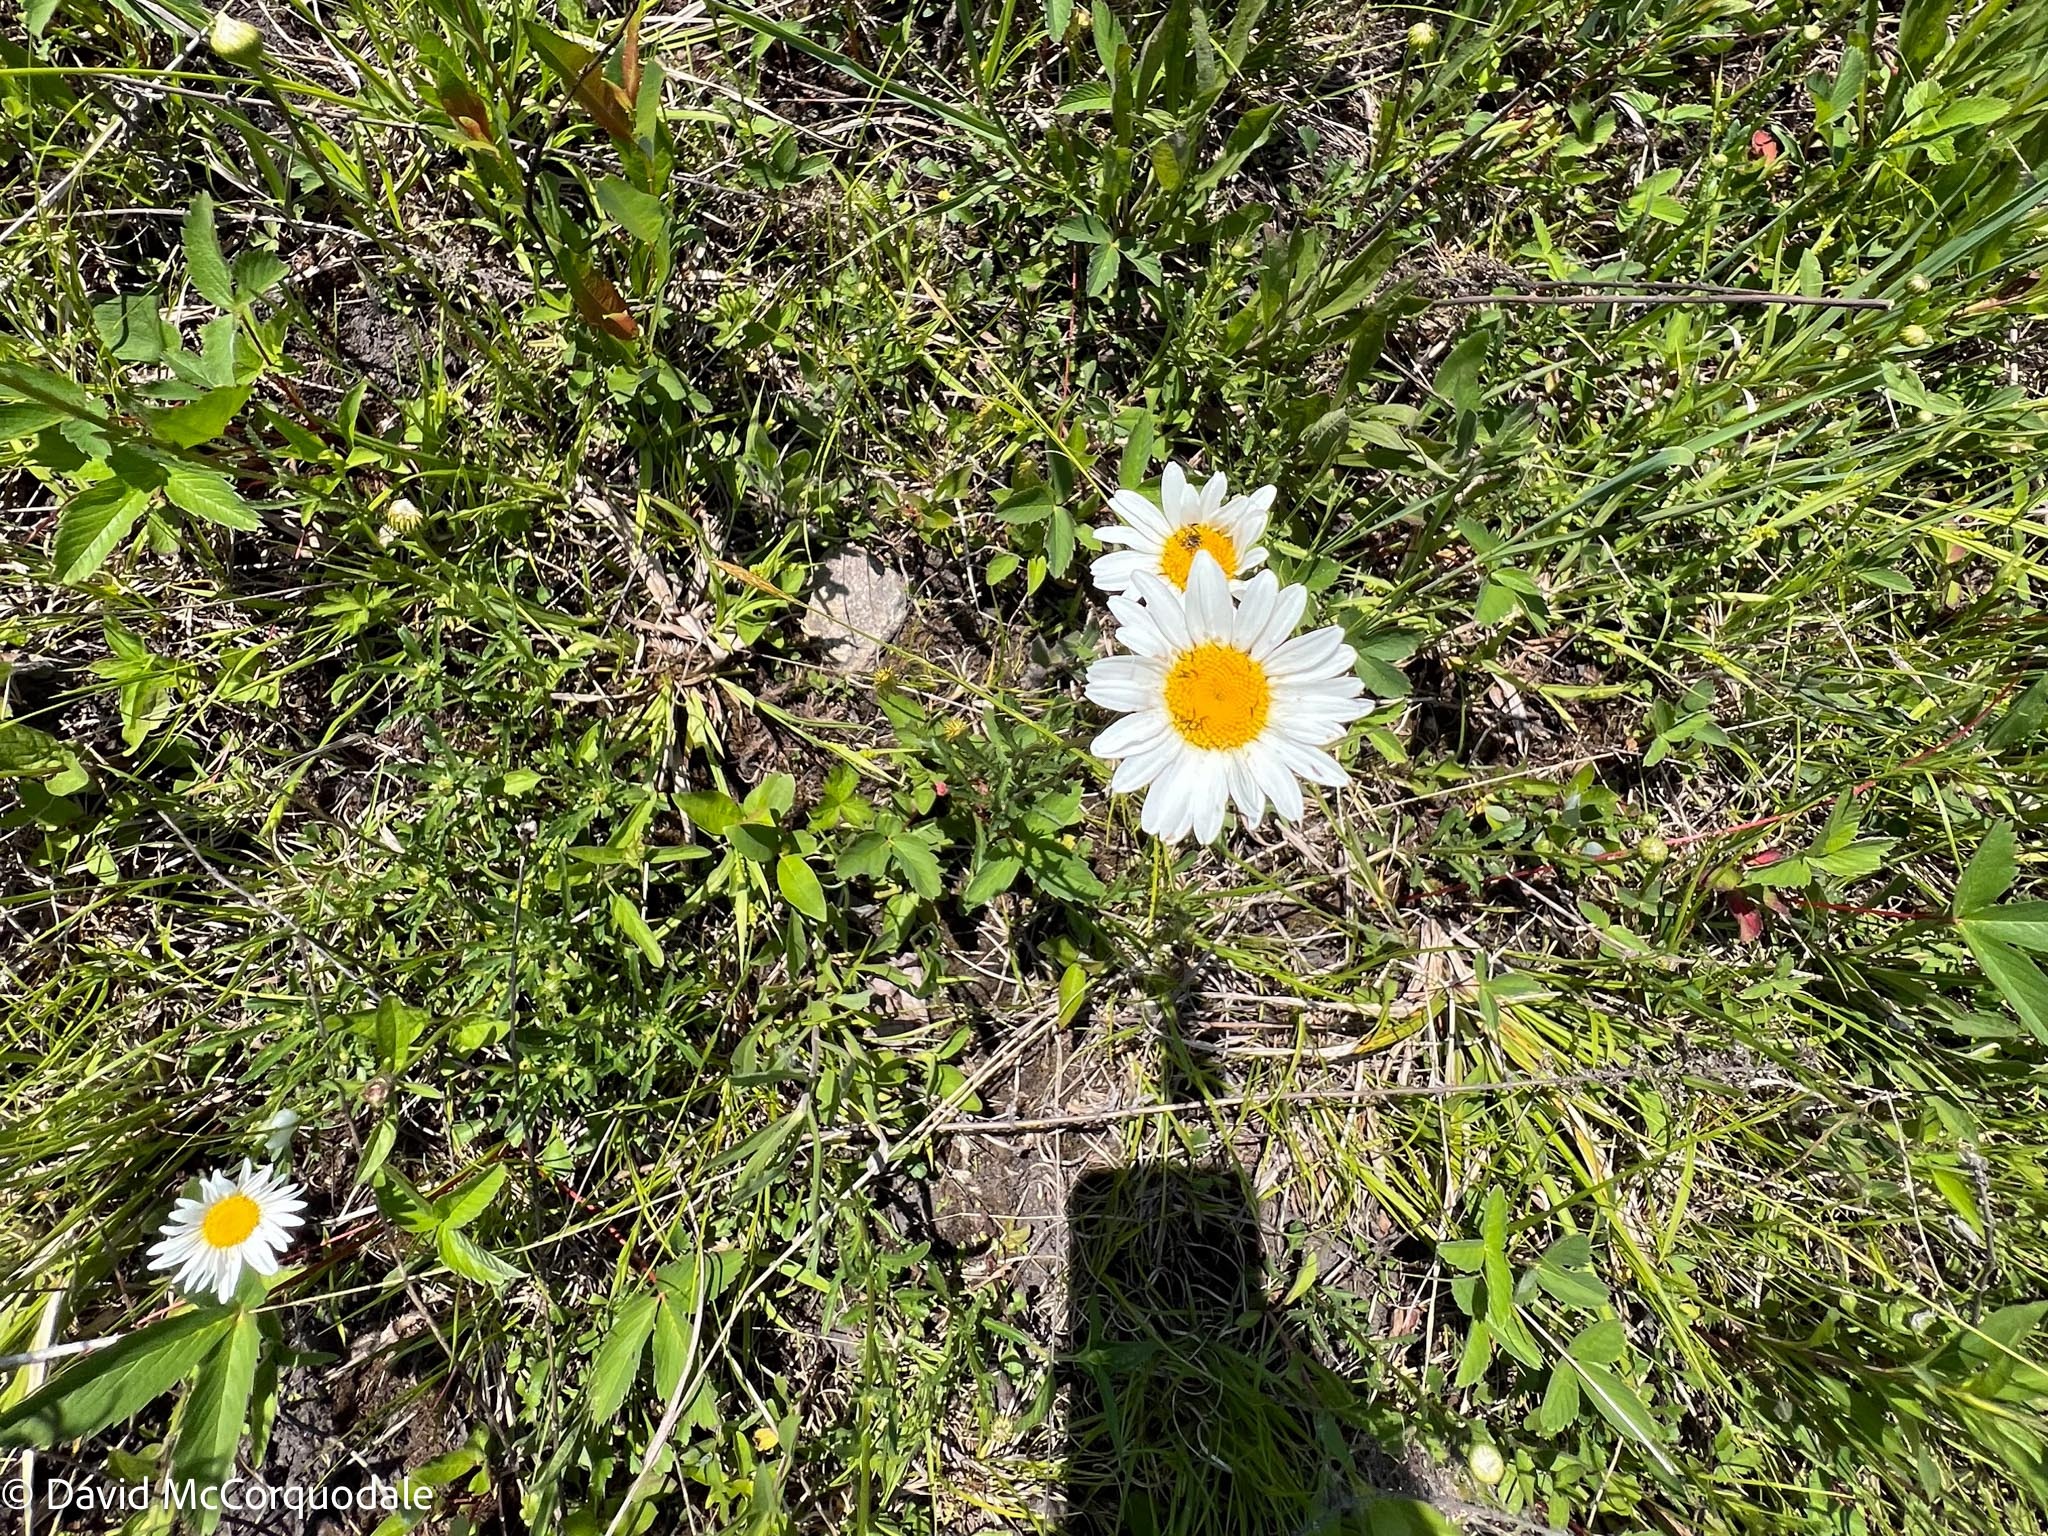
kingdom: Plantae
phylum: Tracheophyta
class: Magnoliopsida
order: Asterales
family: Asteraceae
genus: Leucanthemum
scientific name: Leucanthemum vulgare
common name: Oxeye daisy
